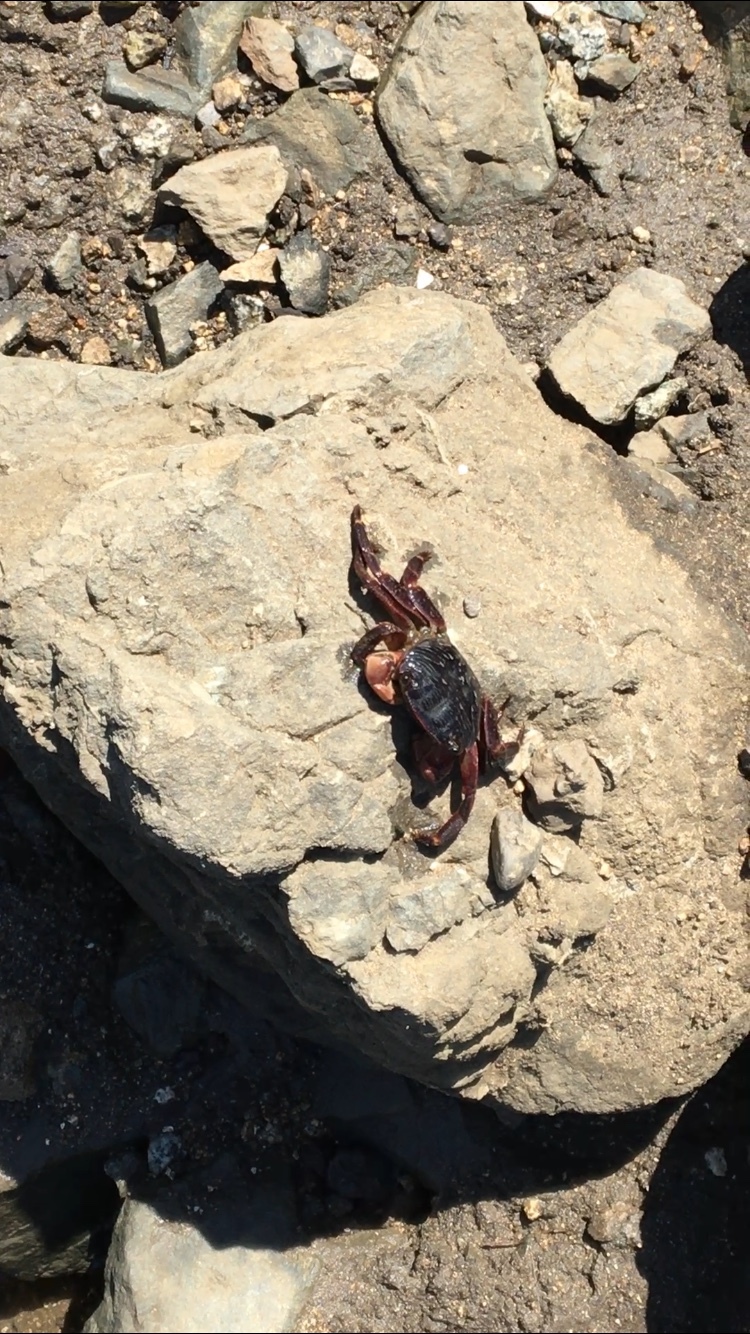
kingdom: Animalia
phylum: Arthropoda
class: Malacostraca
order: Decapoda
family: Grapsidae
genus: Pachygrapsus
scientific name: Pachygrapsus crassipes
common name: Striped shore crab
